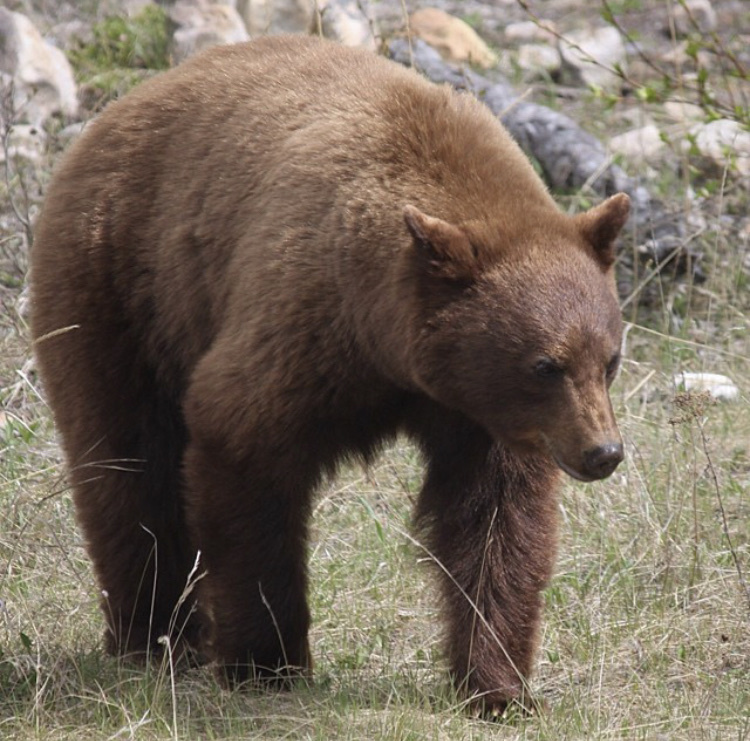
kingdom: Animalia
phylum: Chordata
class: Mammalia
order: Carnivora
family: Ursidae
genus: Ursus
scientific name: Ursus americanus
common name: American black bear
